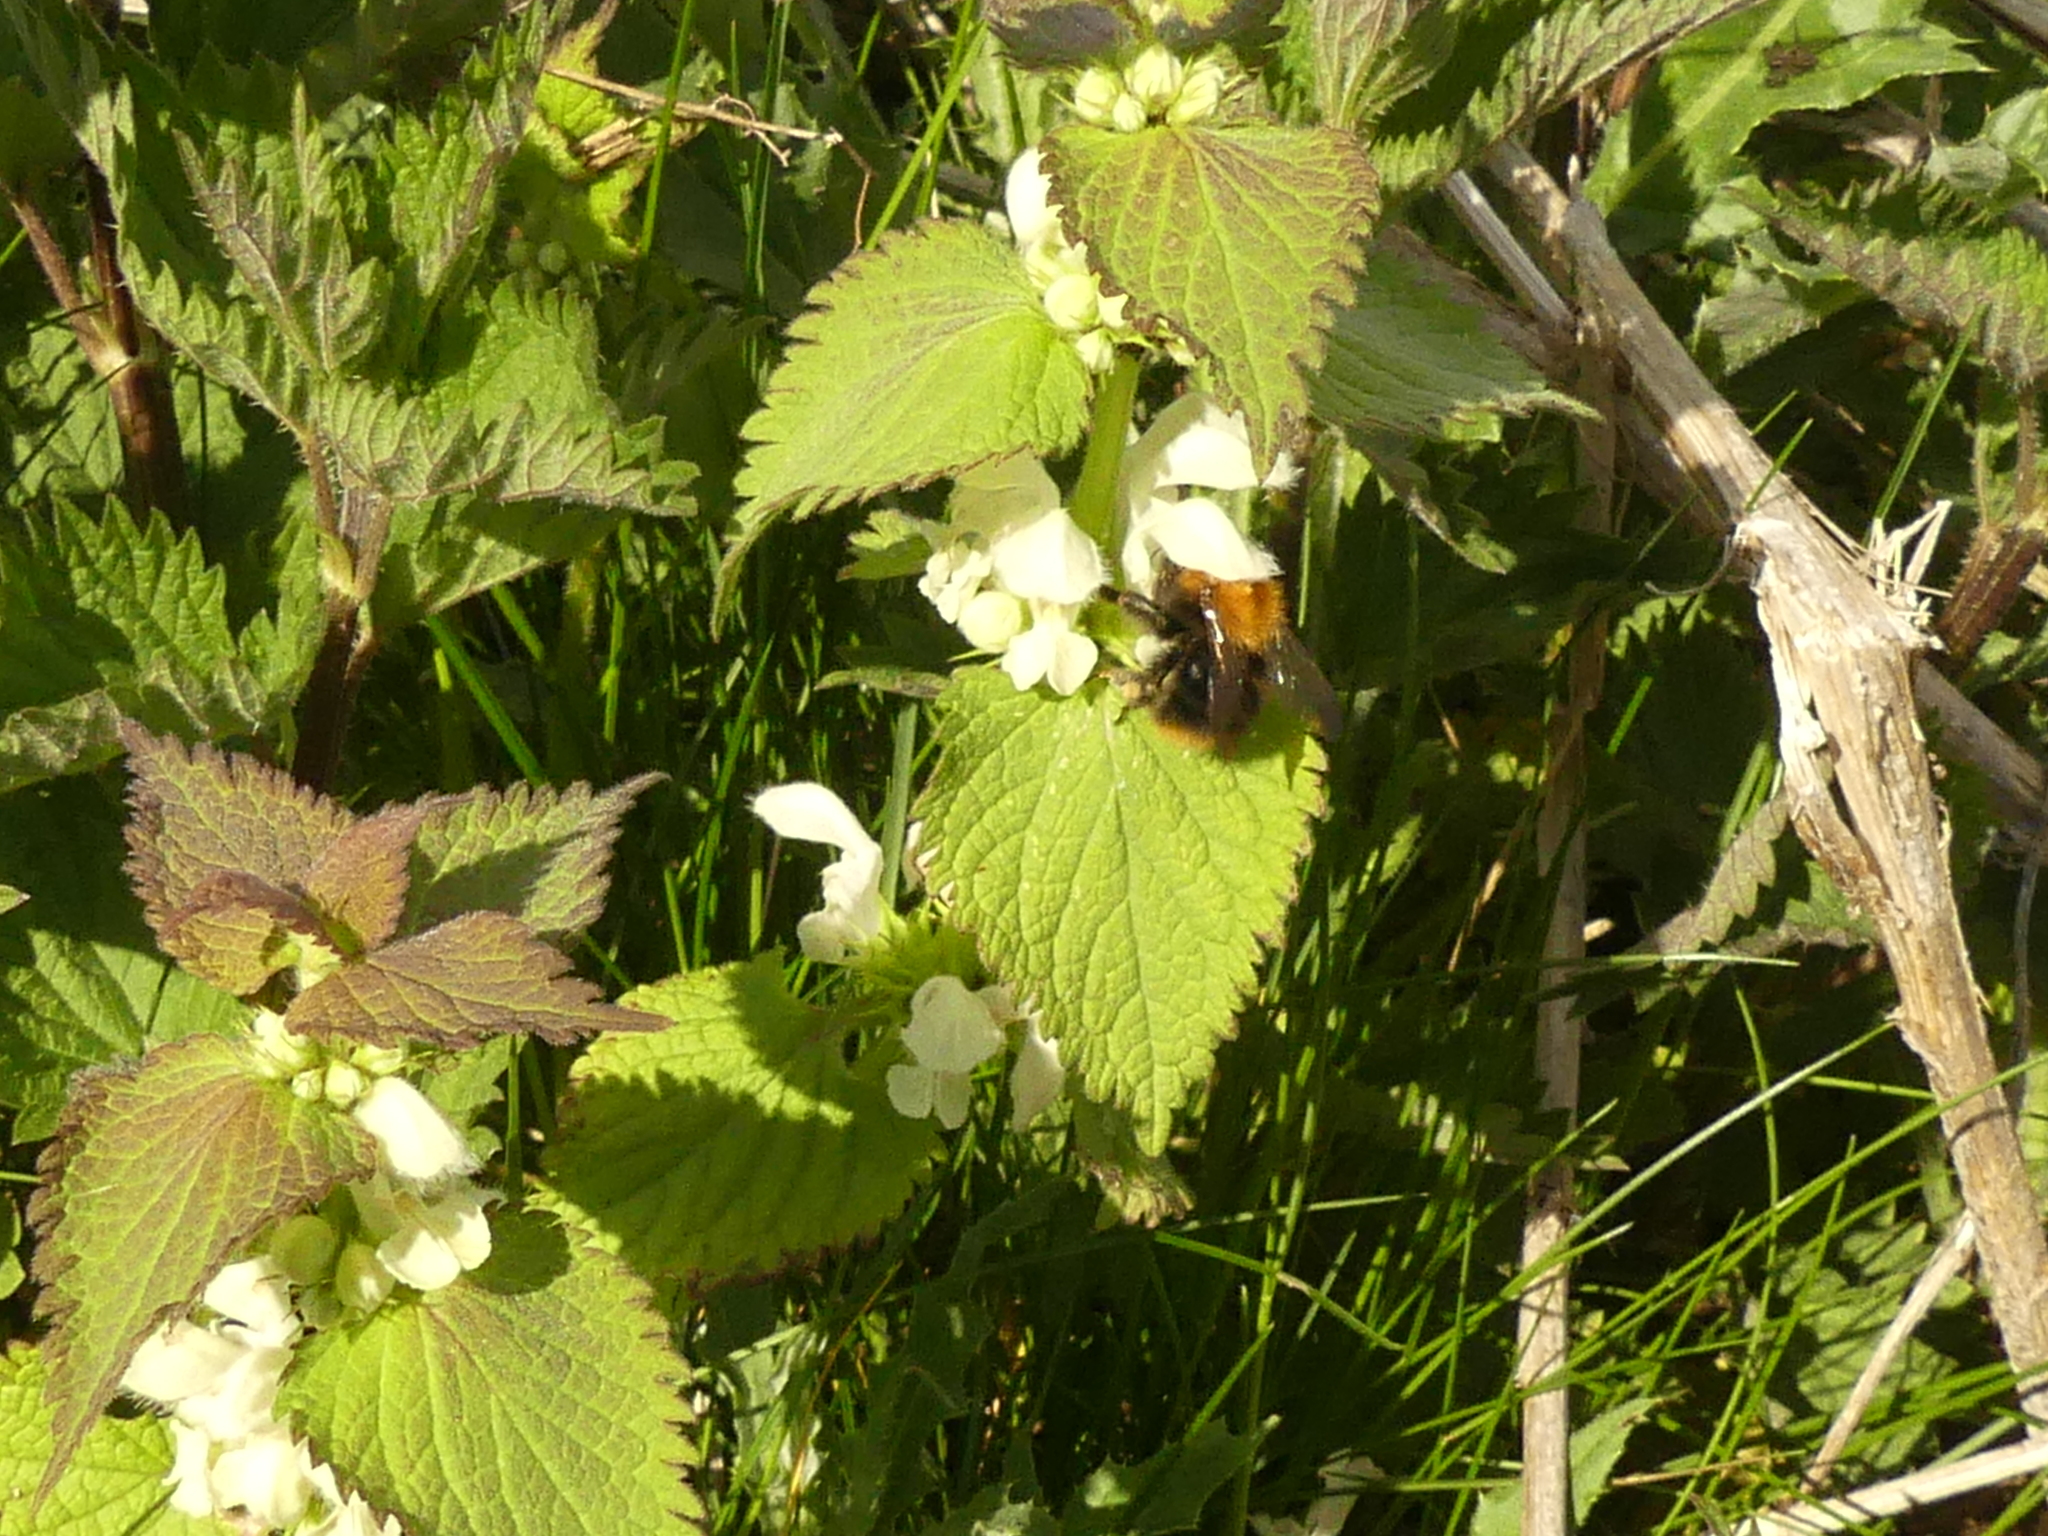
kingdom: Animalia
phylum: Arthropoda
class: Insecta
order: Hymenoptera
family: Apidae
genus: Bombus
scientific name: Bombus pascuorum
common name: Common carder bee
